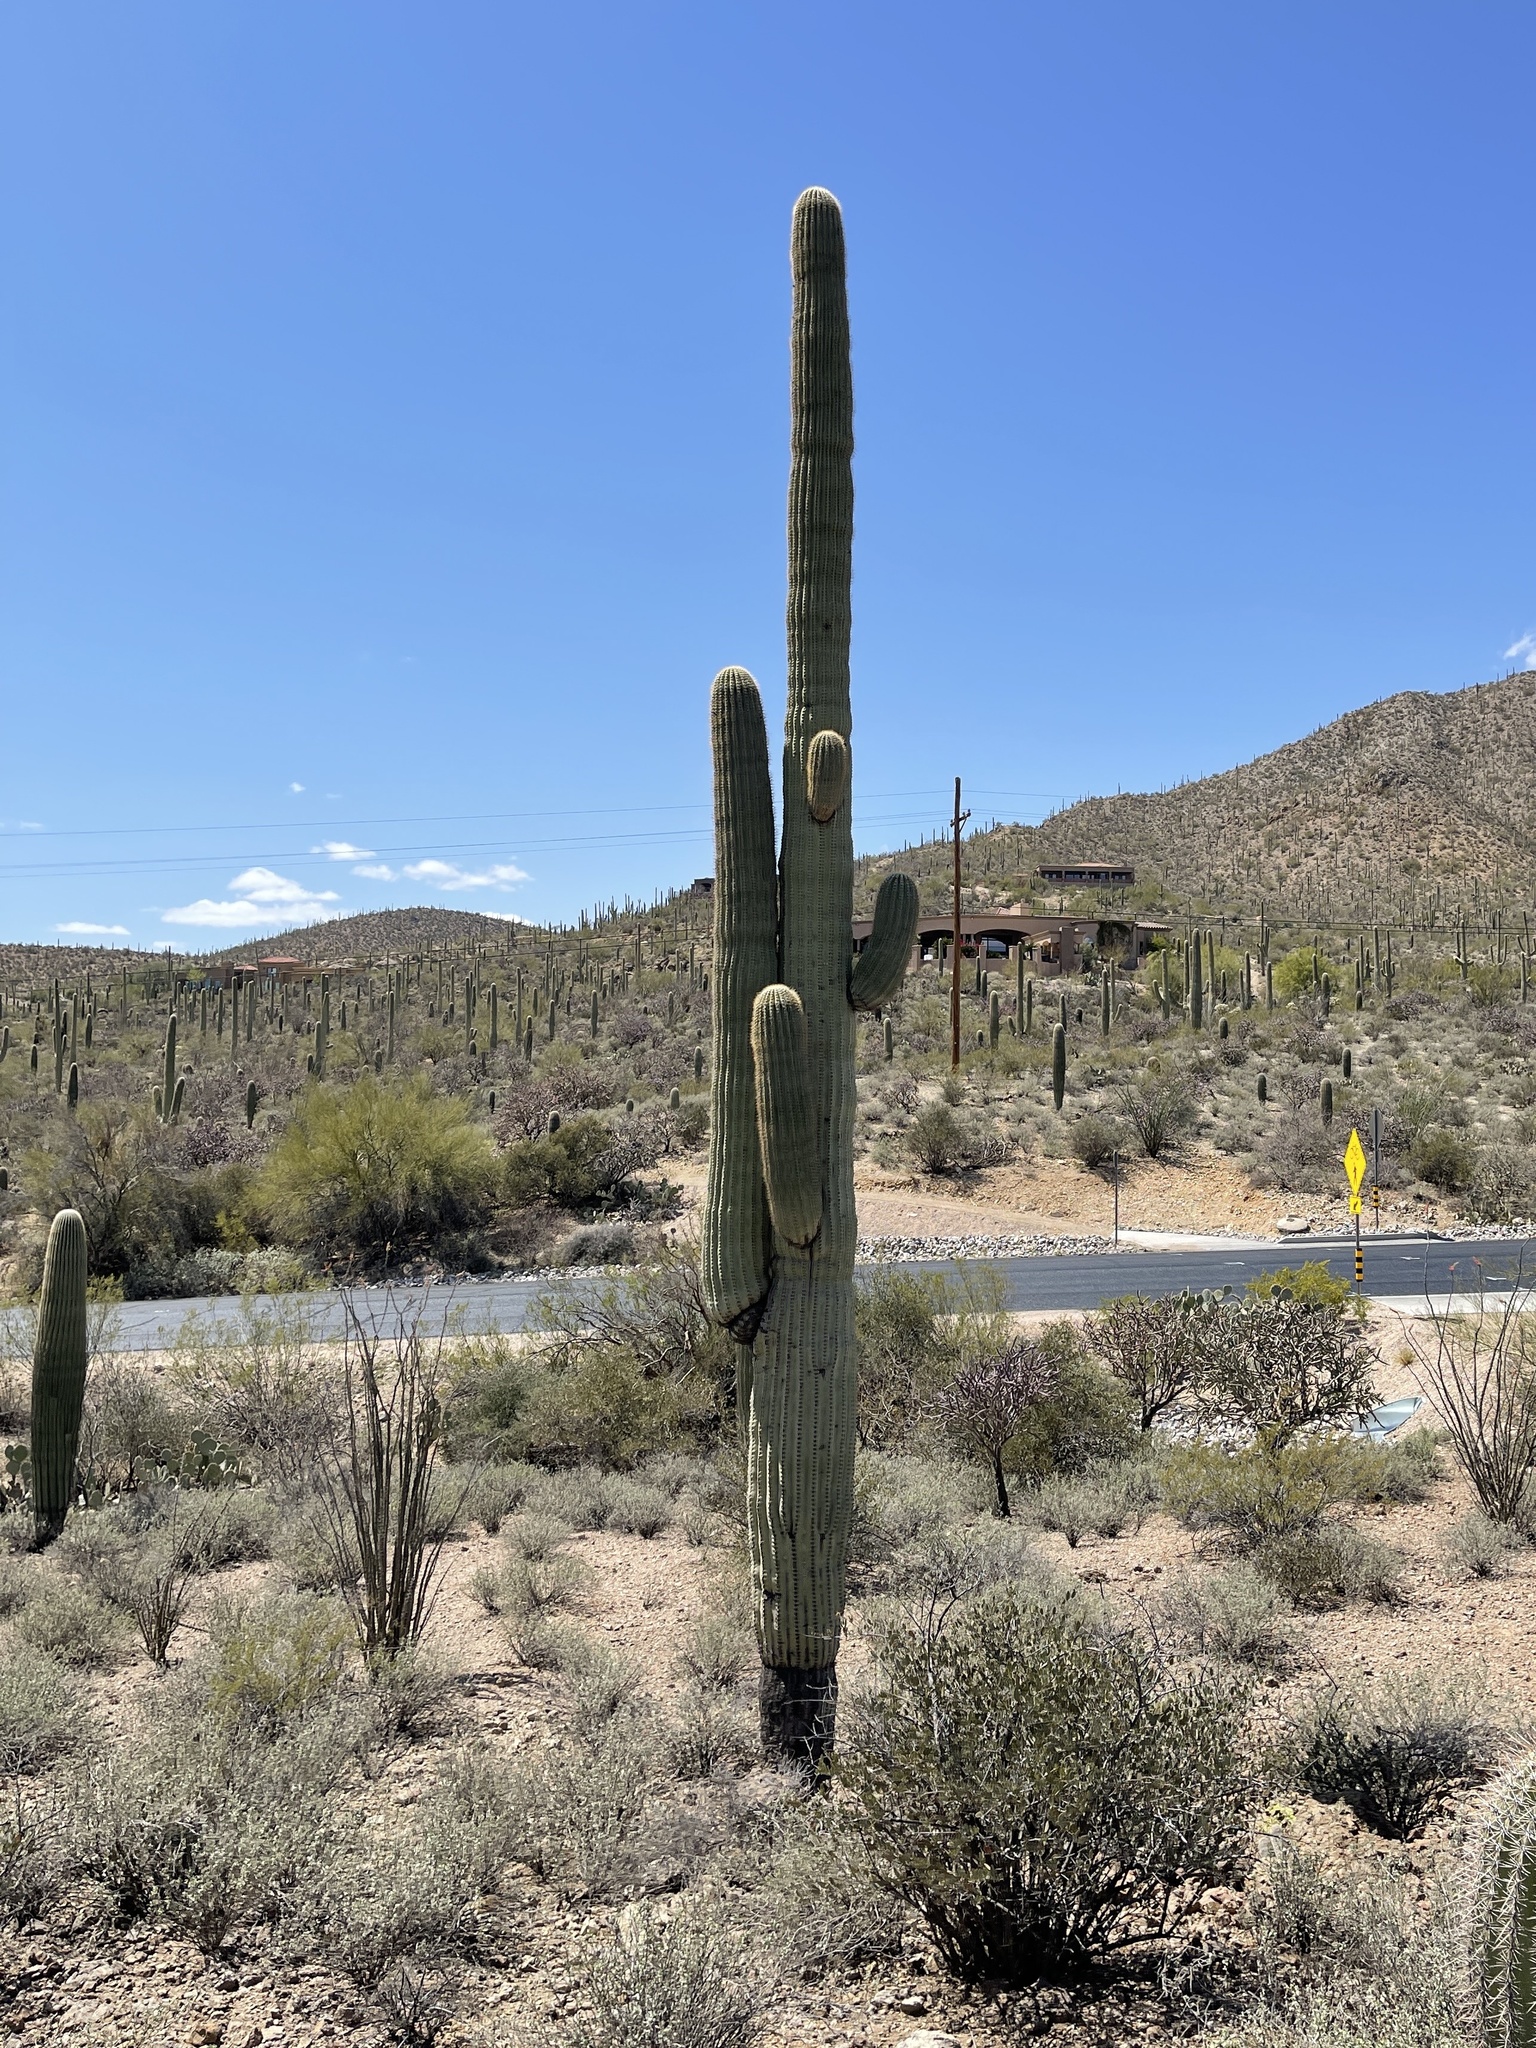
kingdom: Plantae
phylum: Tracheophyta
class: Magnoliopsida
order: Caryophyllales
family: Cactaceae
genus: Carnegiea
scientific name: Carnegiea gigantea
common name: Saguaro
